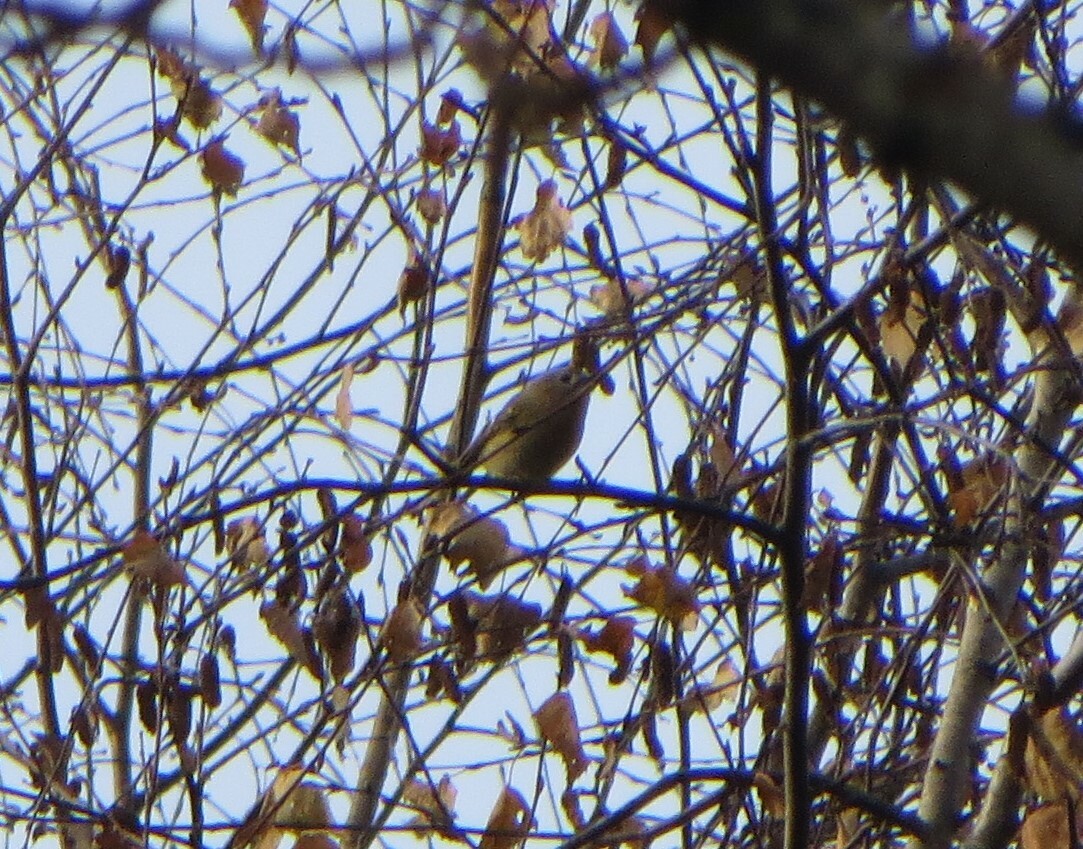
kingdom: Animalia
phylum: Chordata
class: Aves
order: Passeriformes
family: Regulidae
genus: Regulus
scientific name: Regulus regulus
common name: Goldcrest
